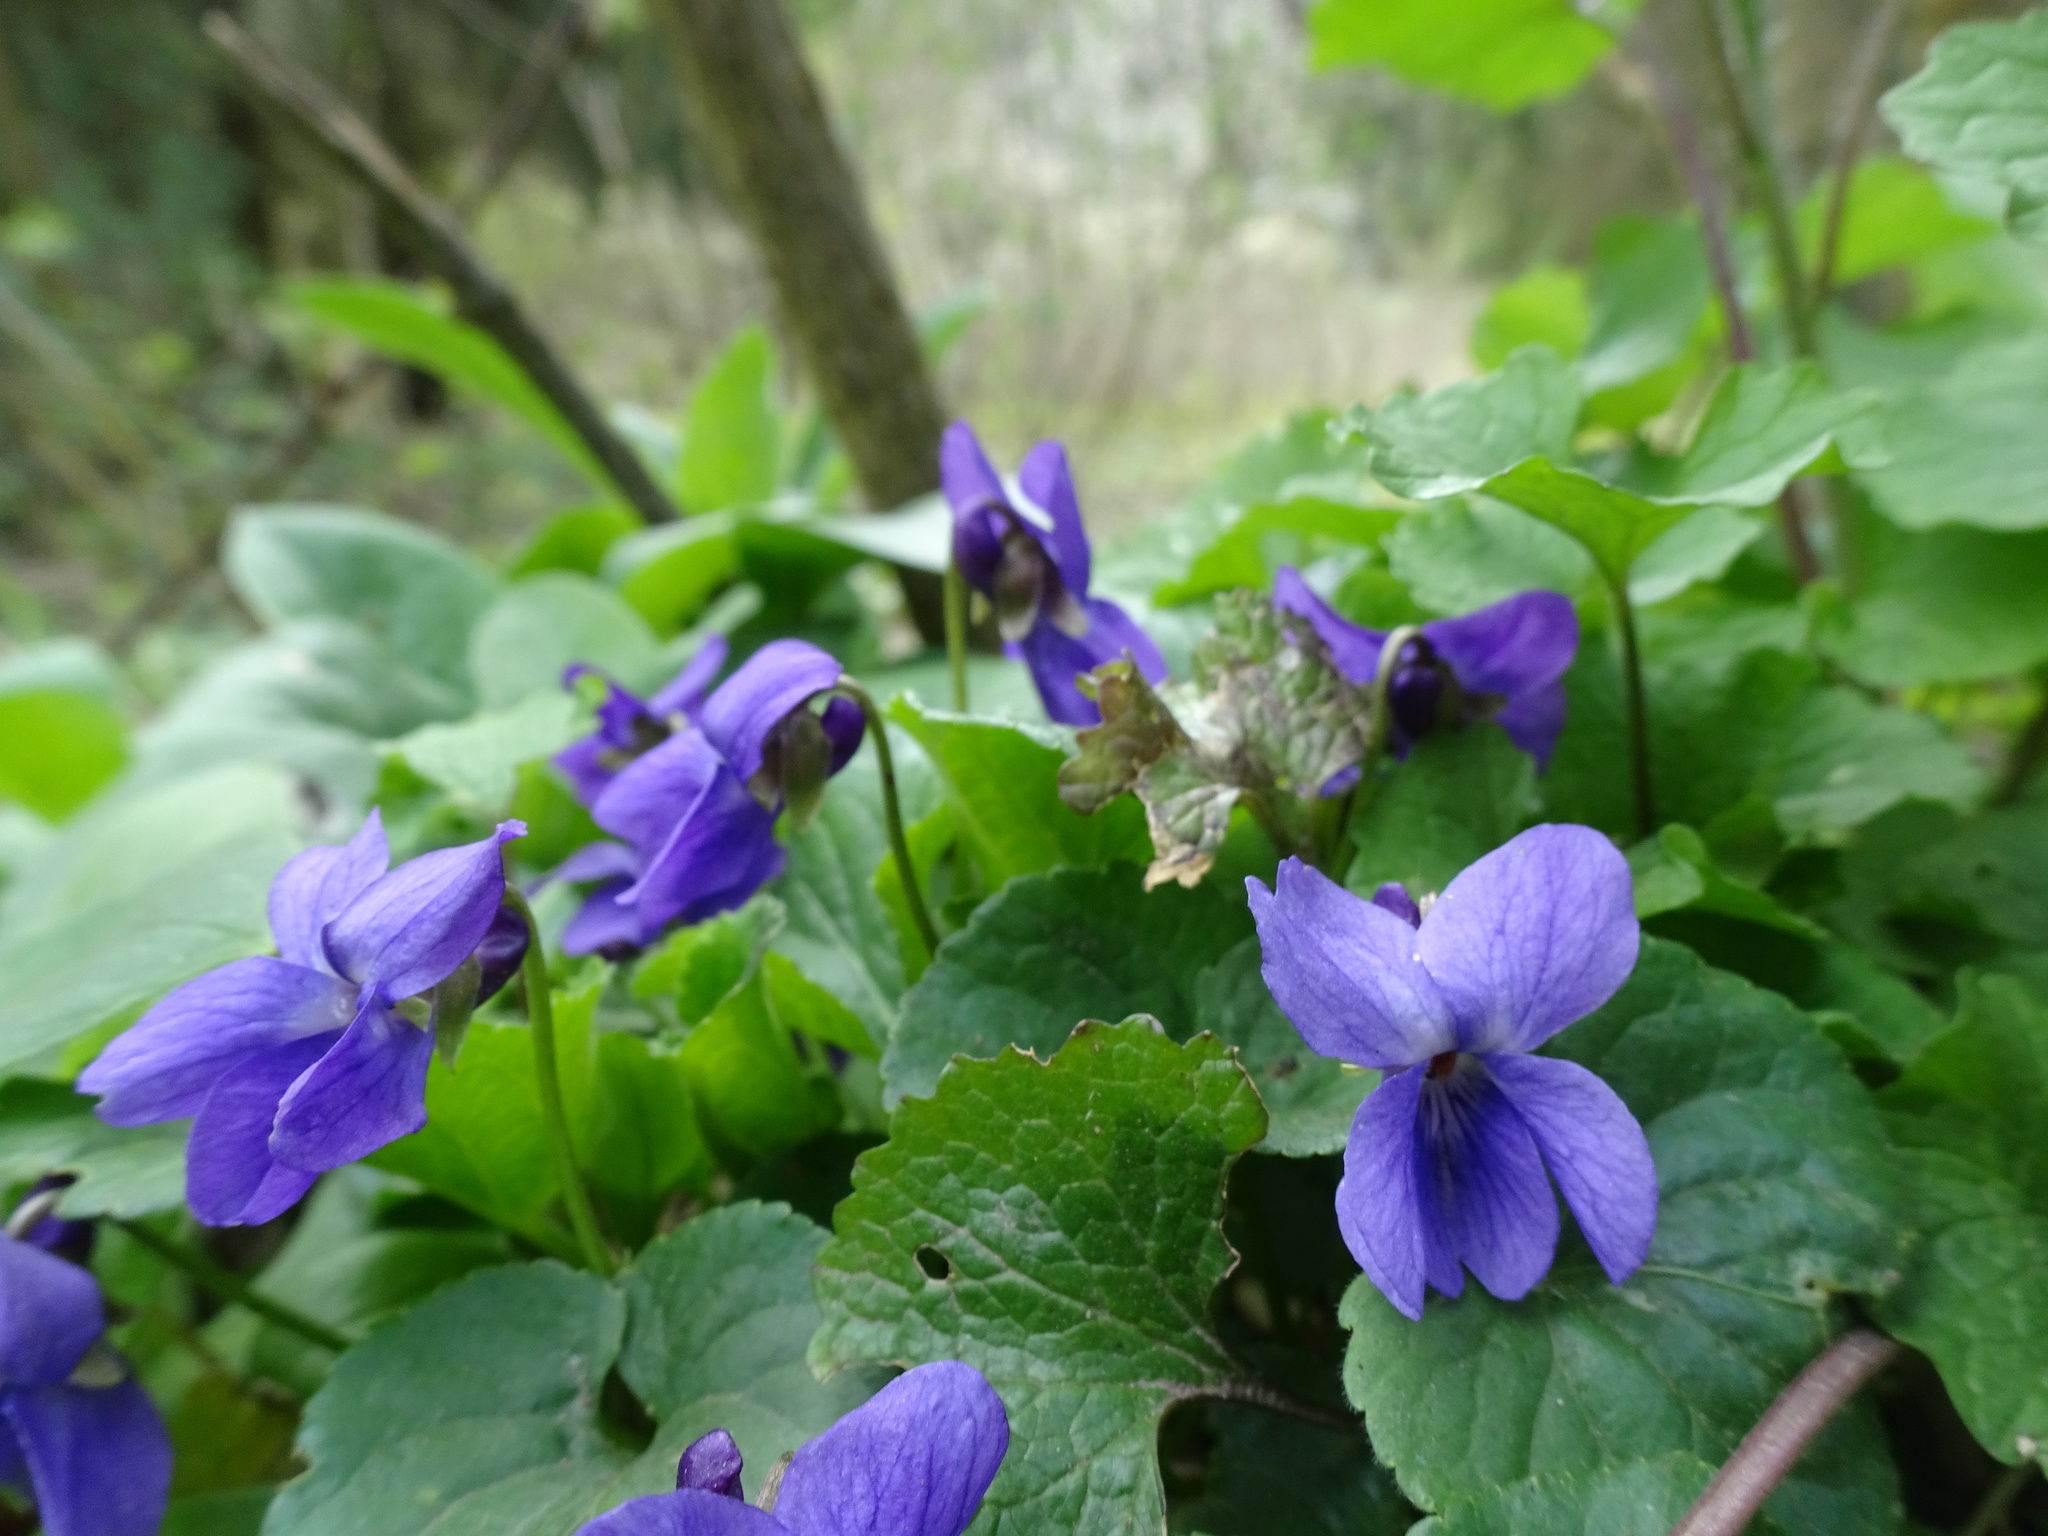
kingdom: Plantae
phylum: Tracheophyta
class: Magnoliopsida
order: Malpighiales
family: Violaceae
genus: Viola
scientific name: Viola odorata
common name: Sweet violet
